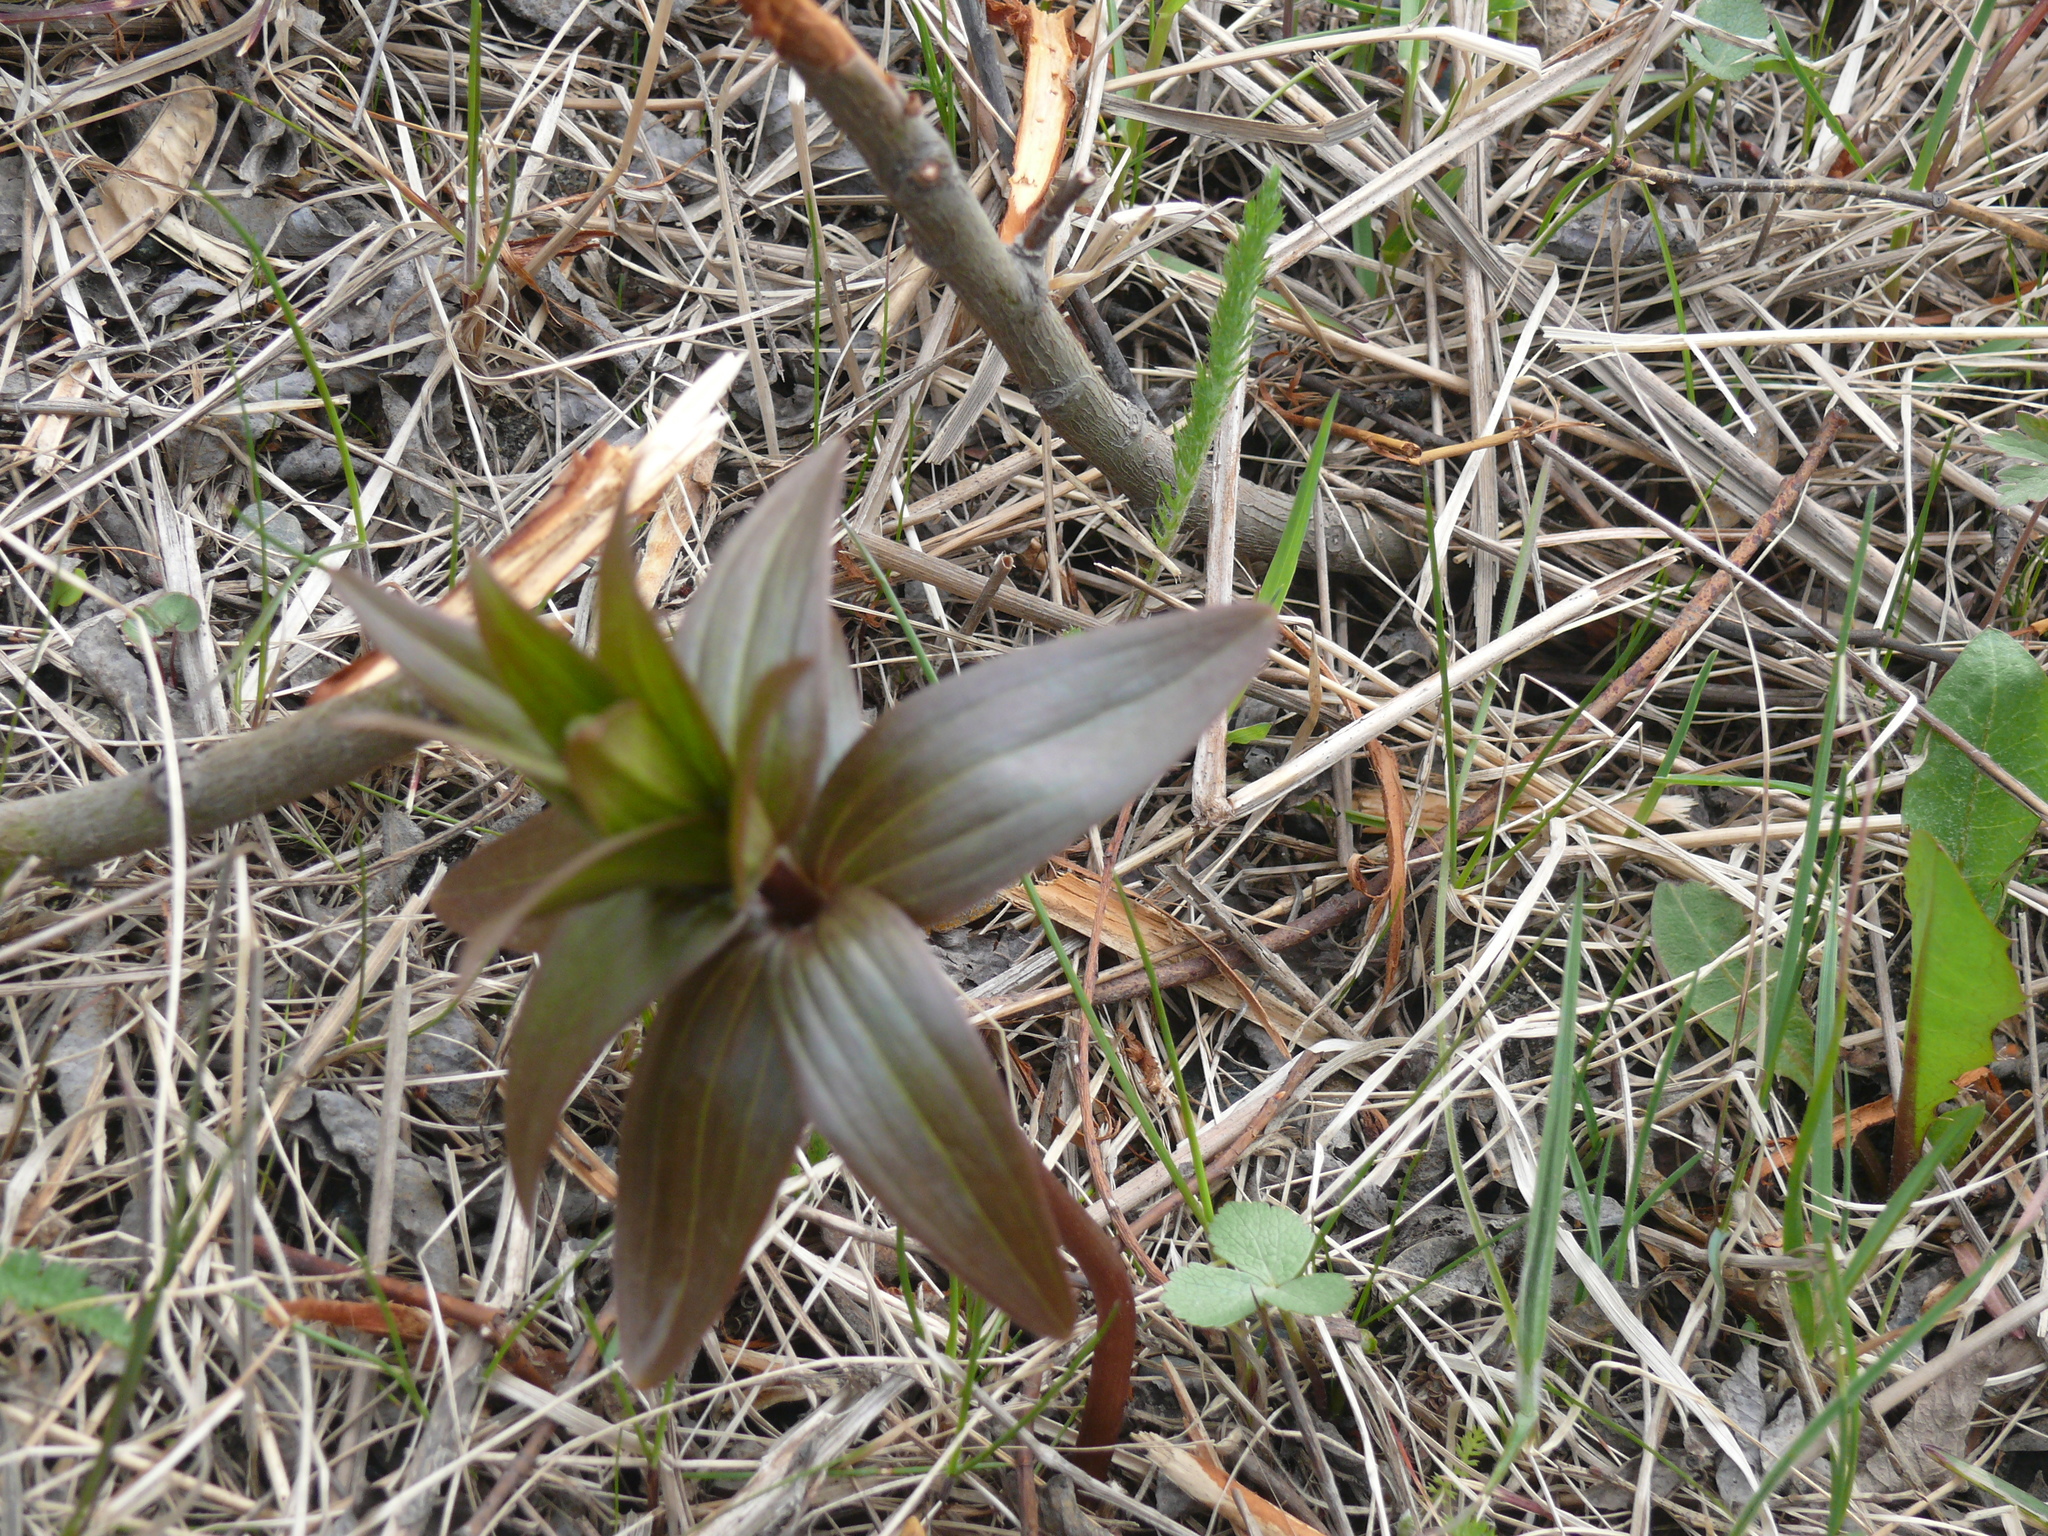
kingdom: Plantae
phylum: Tracheophyta
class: Liliopsida
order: Liliales
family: Liliaceae
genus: Fritillaria
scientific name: Fritillaria camschatcensis
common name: Kamchatka fritillary
